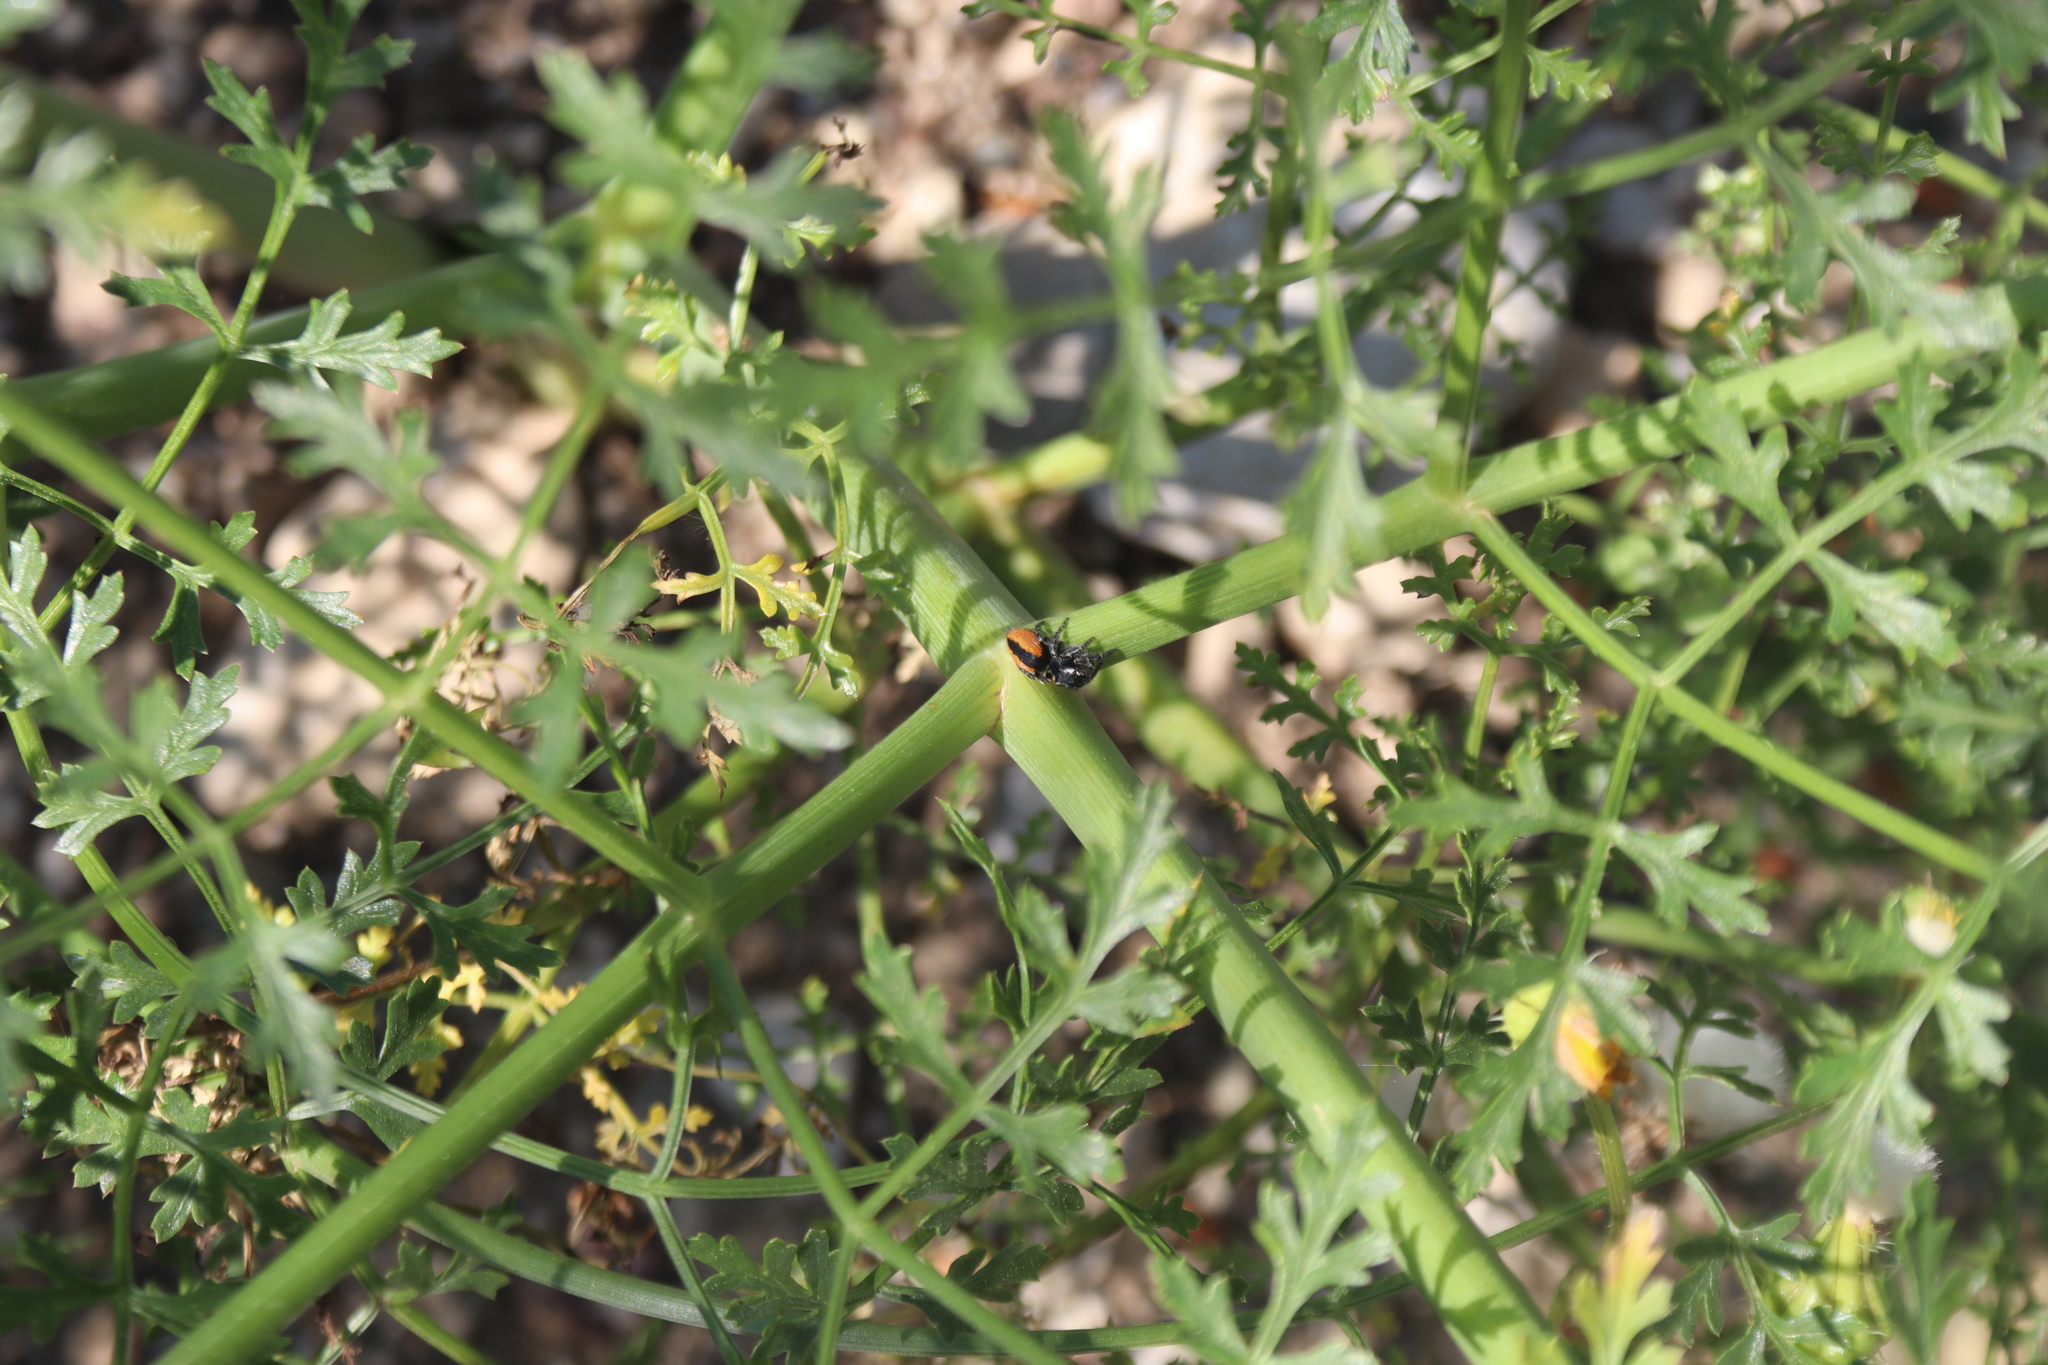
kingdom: Plantae
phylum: Tracheophyta
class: Magnoliopsida
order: Apiales
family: Apiaceae
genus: Ferula
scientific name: Ferula tingitana
